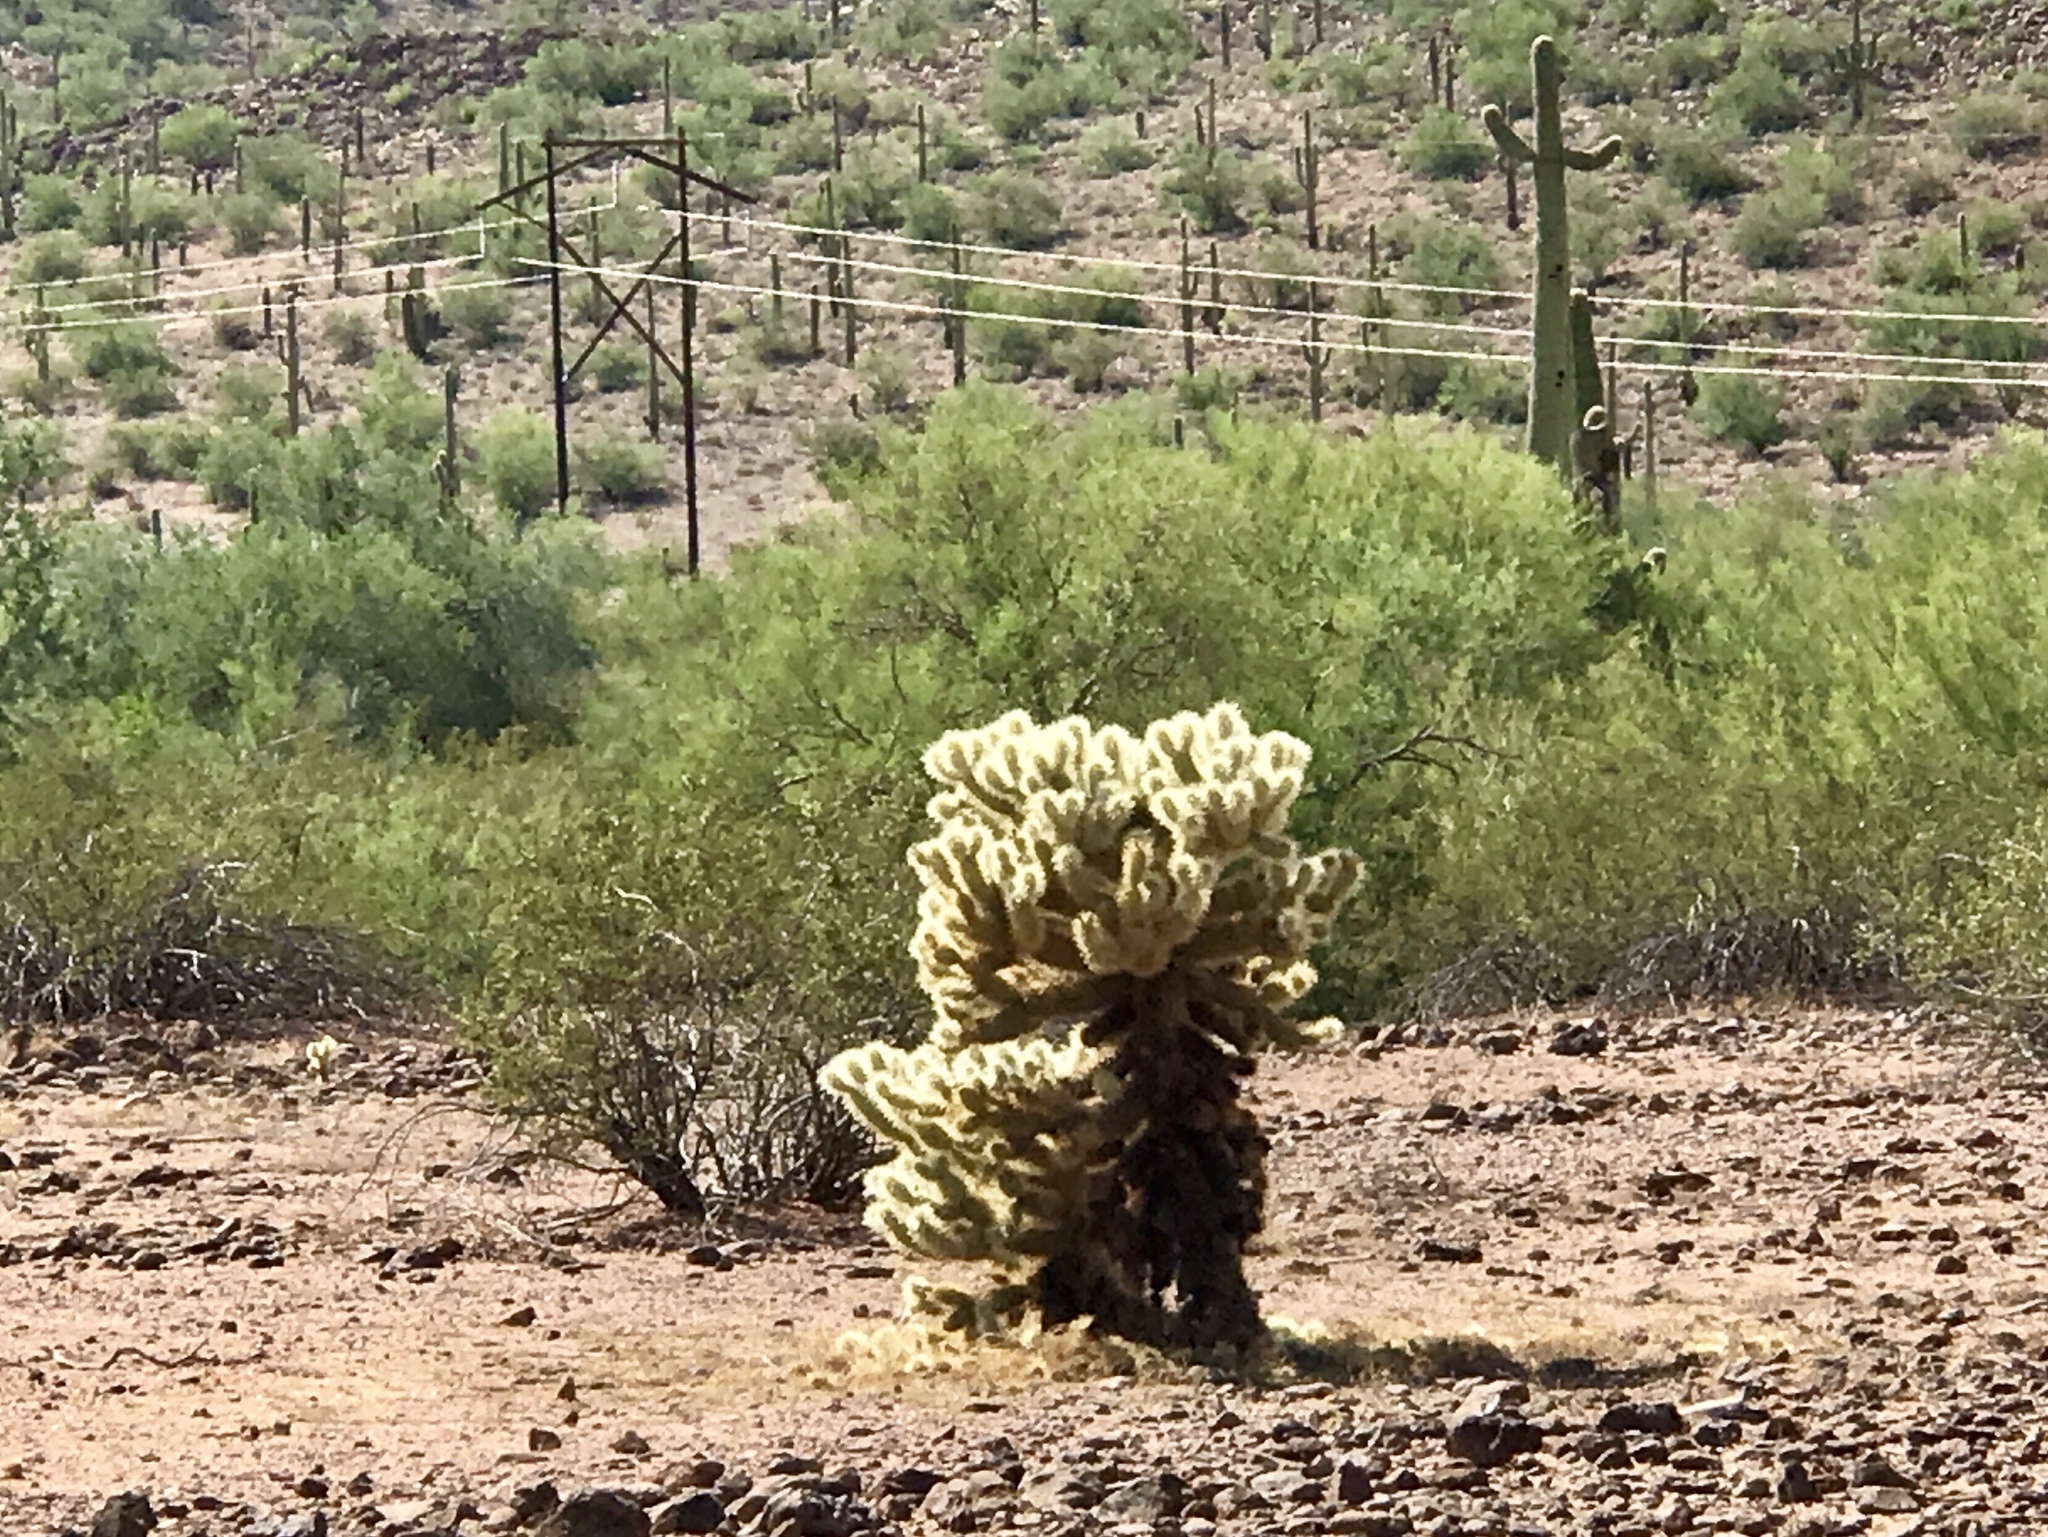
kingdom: Plantae
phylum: Tracheophyta
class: Magnoliopsida
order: Caryophyllales
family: Cactaceae
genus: Cylindropuntia
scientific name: Cylindropuntia fosbergii
